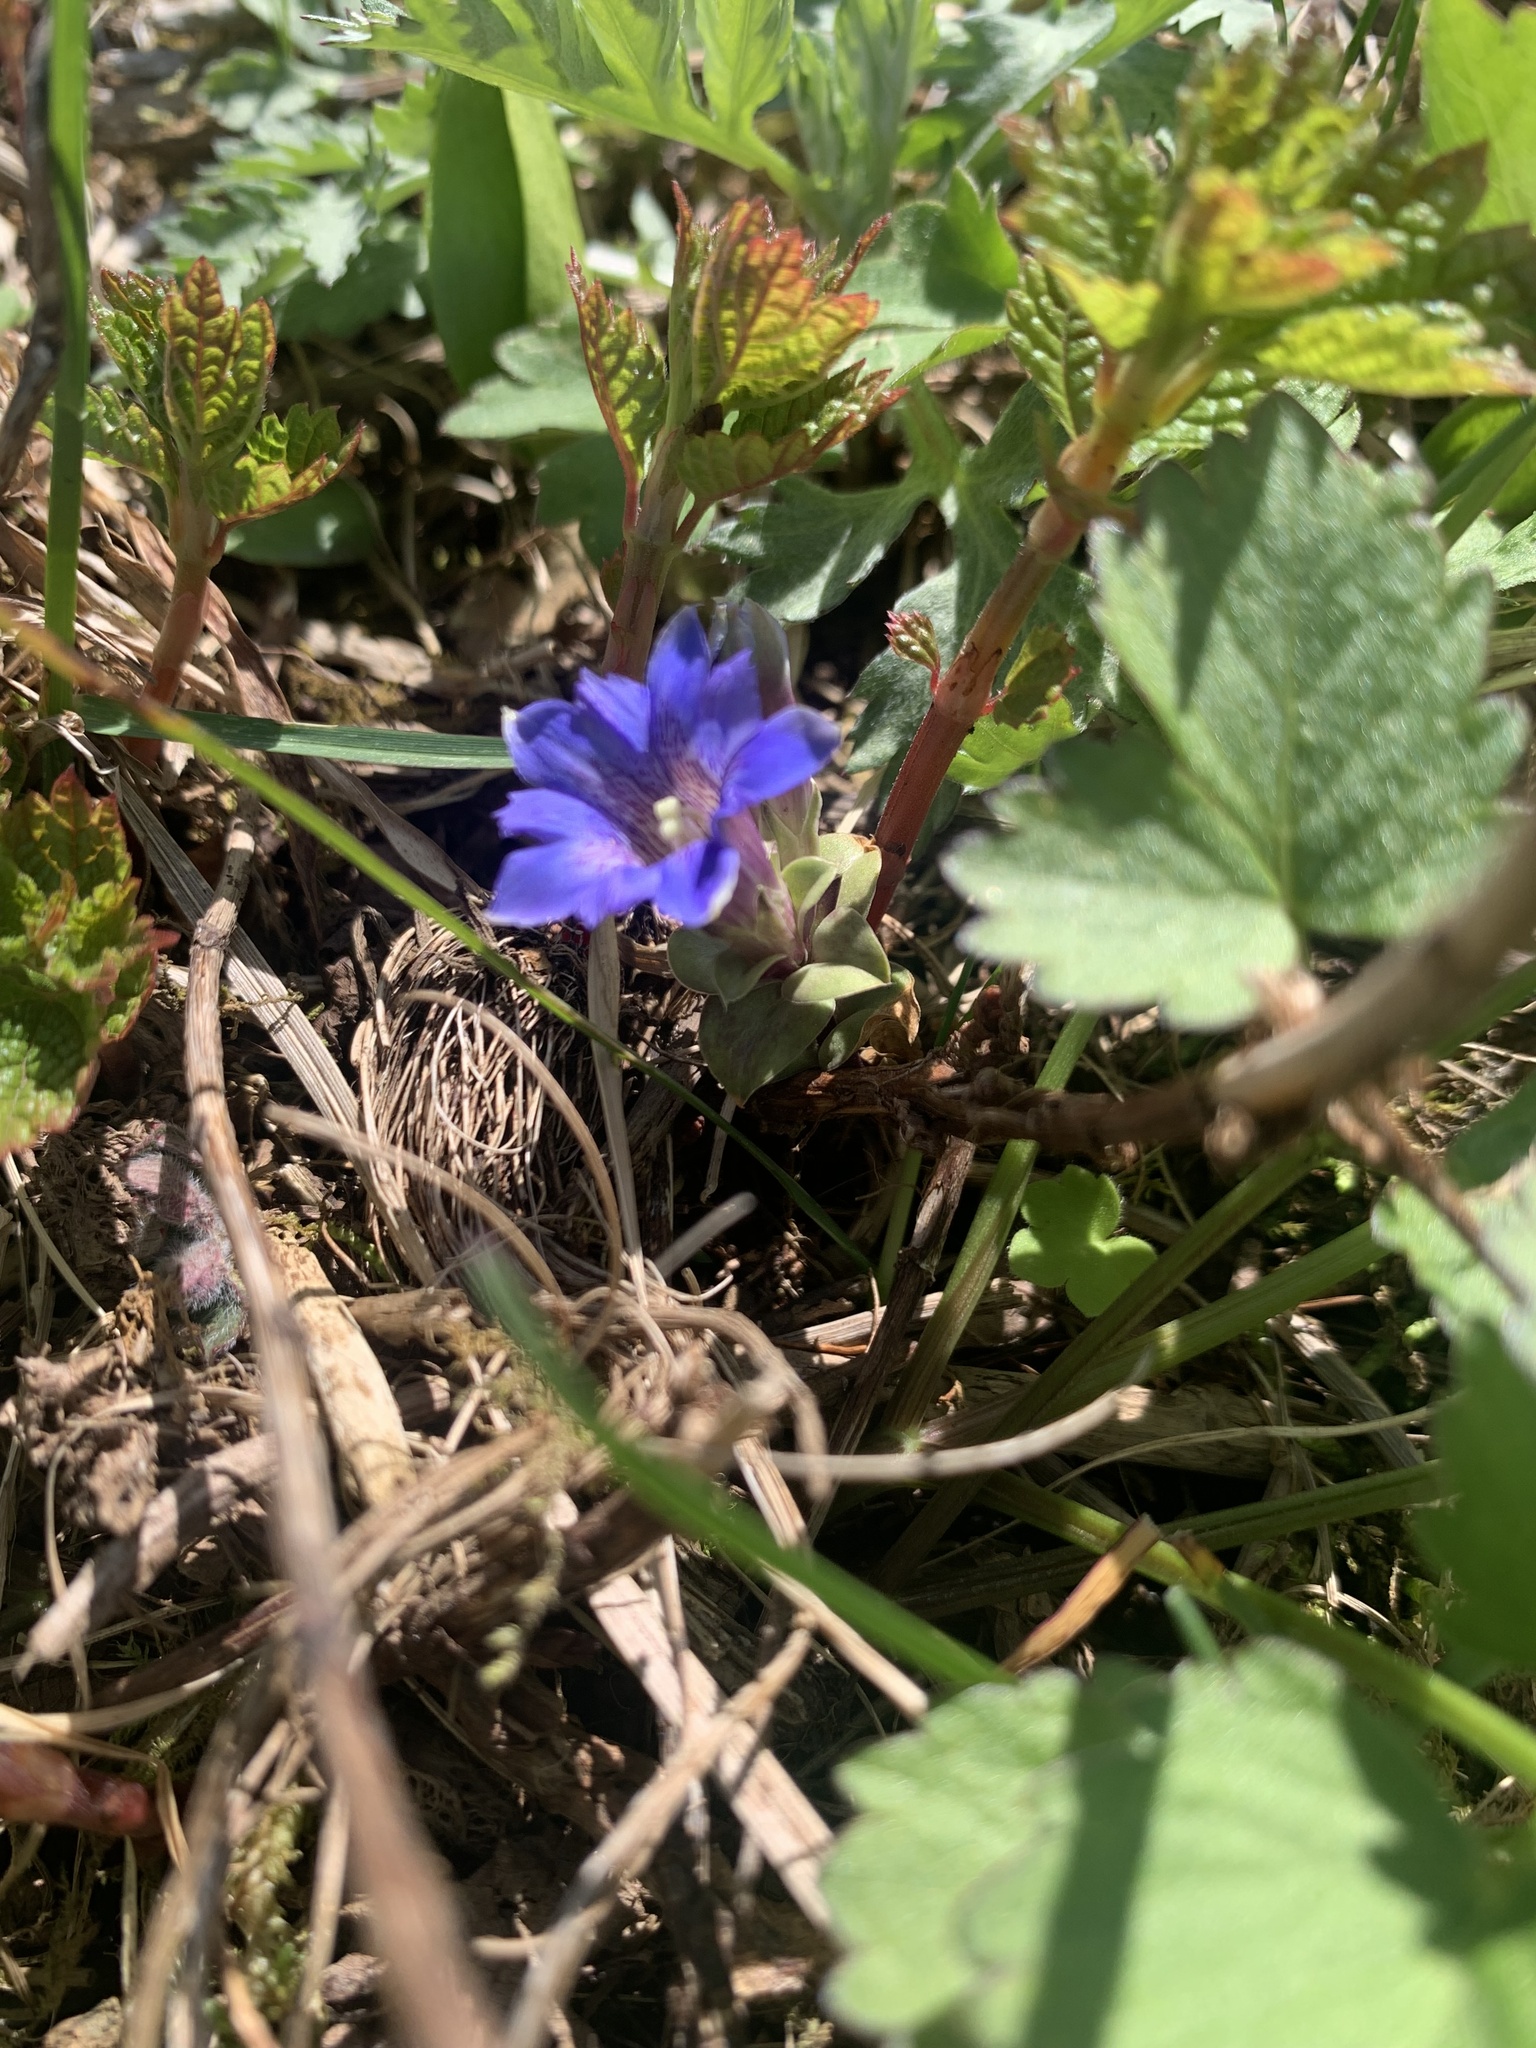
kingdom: Plantae
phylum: Tracheophyta
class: Magnoliopsida
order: Gentianales
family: Gentianaceae
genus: Gentiana
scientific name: Gentiana zollingeri
